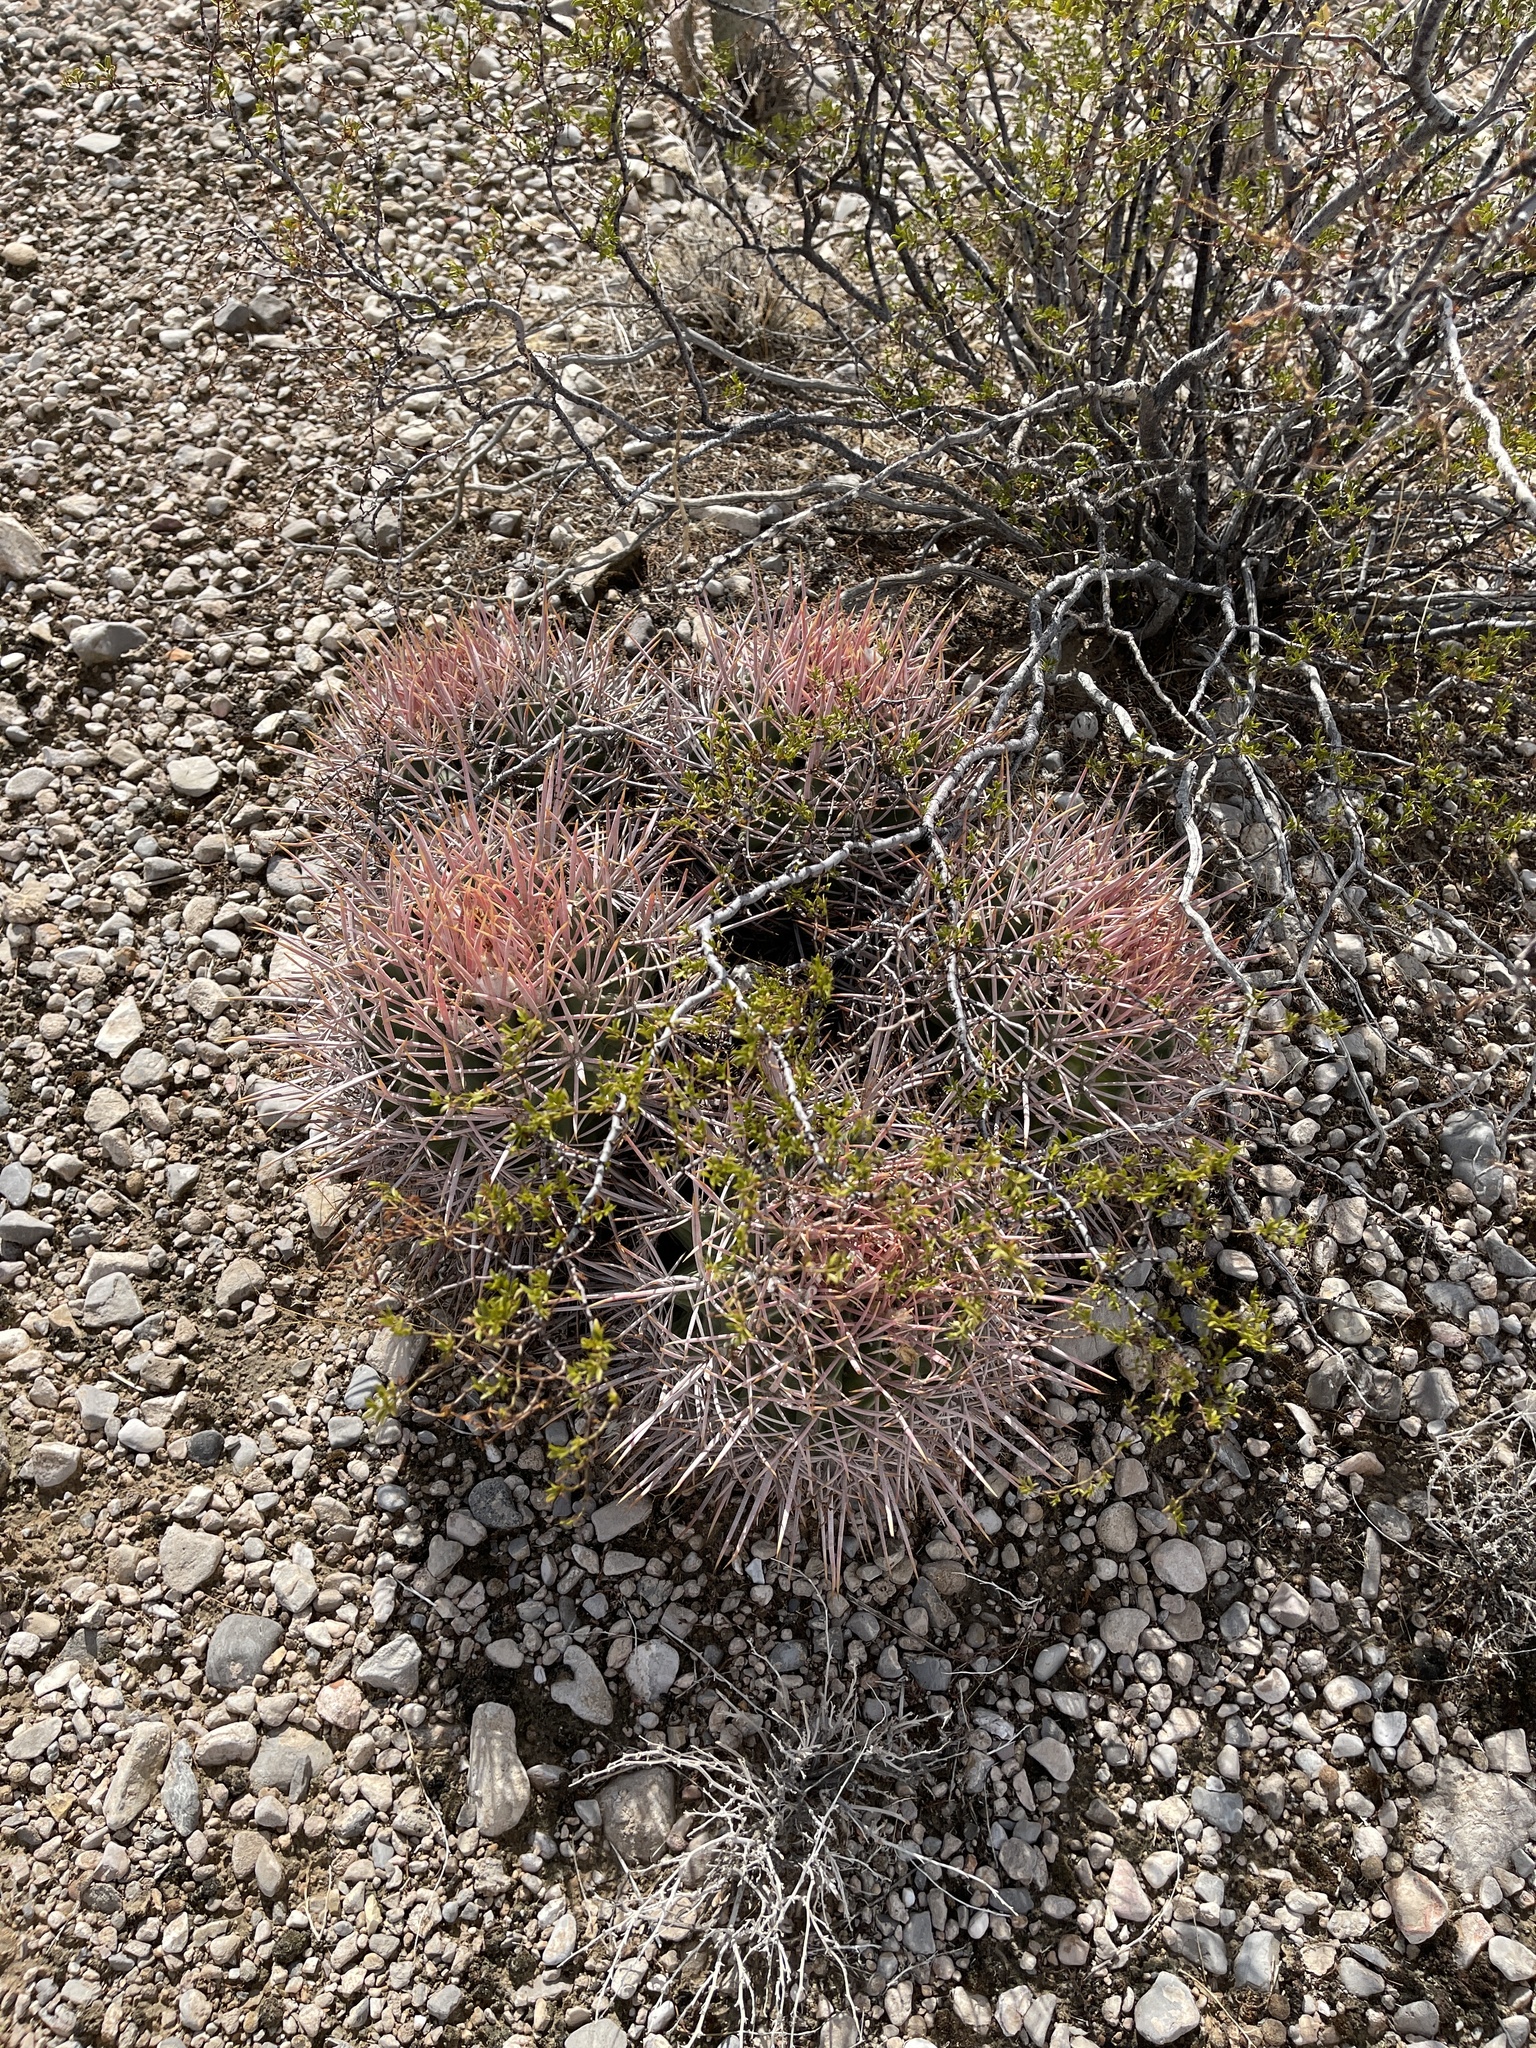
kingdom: Plantae
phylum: Tracheophyta
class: Magnoliopsida
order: Caryophyllales
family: Cactaceae
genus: Echinocactus
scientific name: Echinocactus polycephalus
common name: Cottontop cactus
